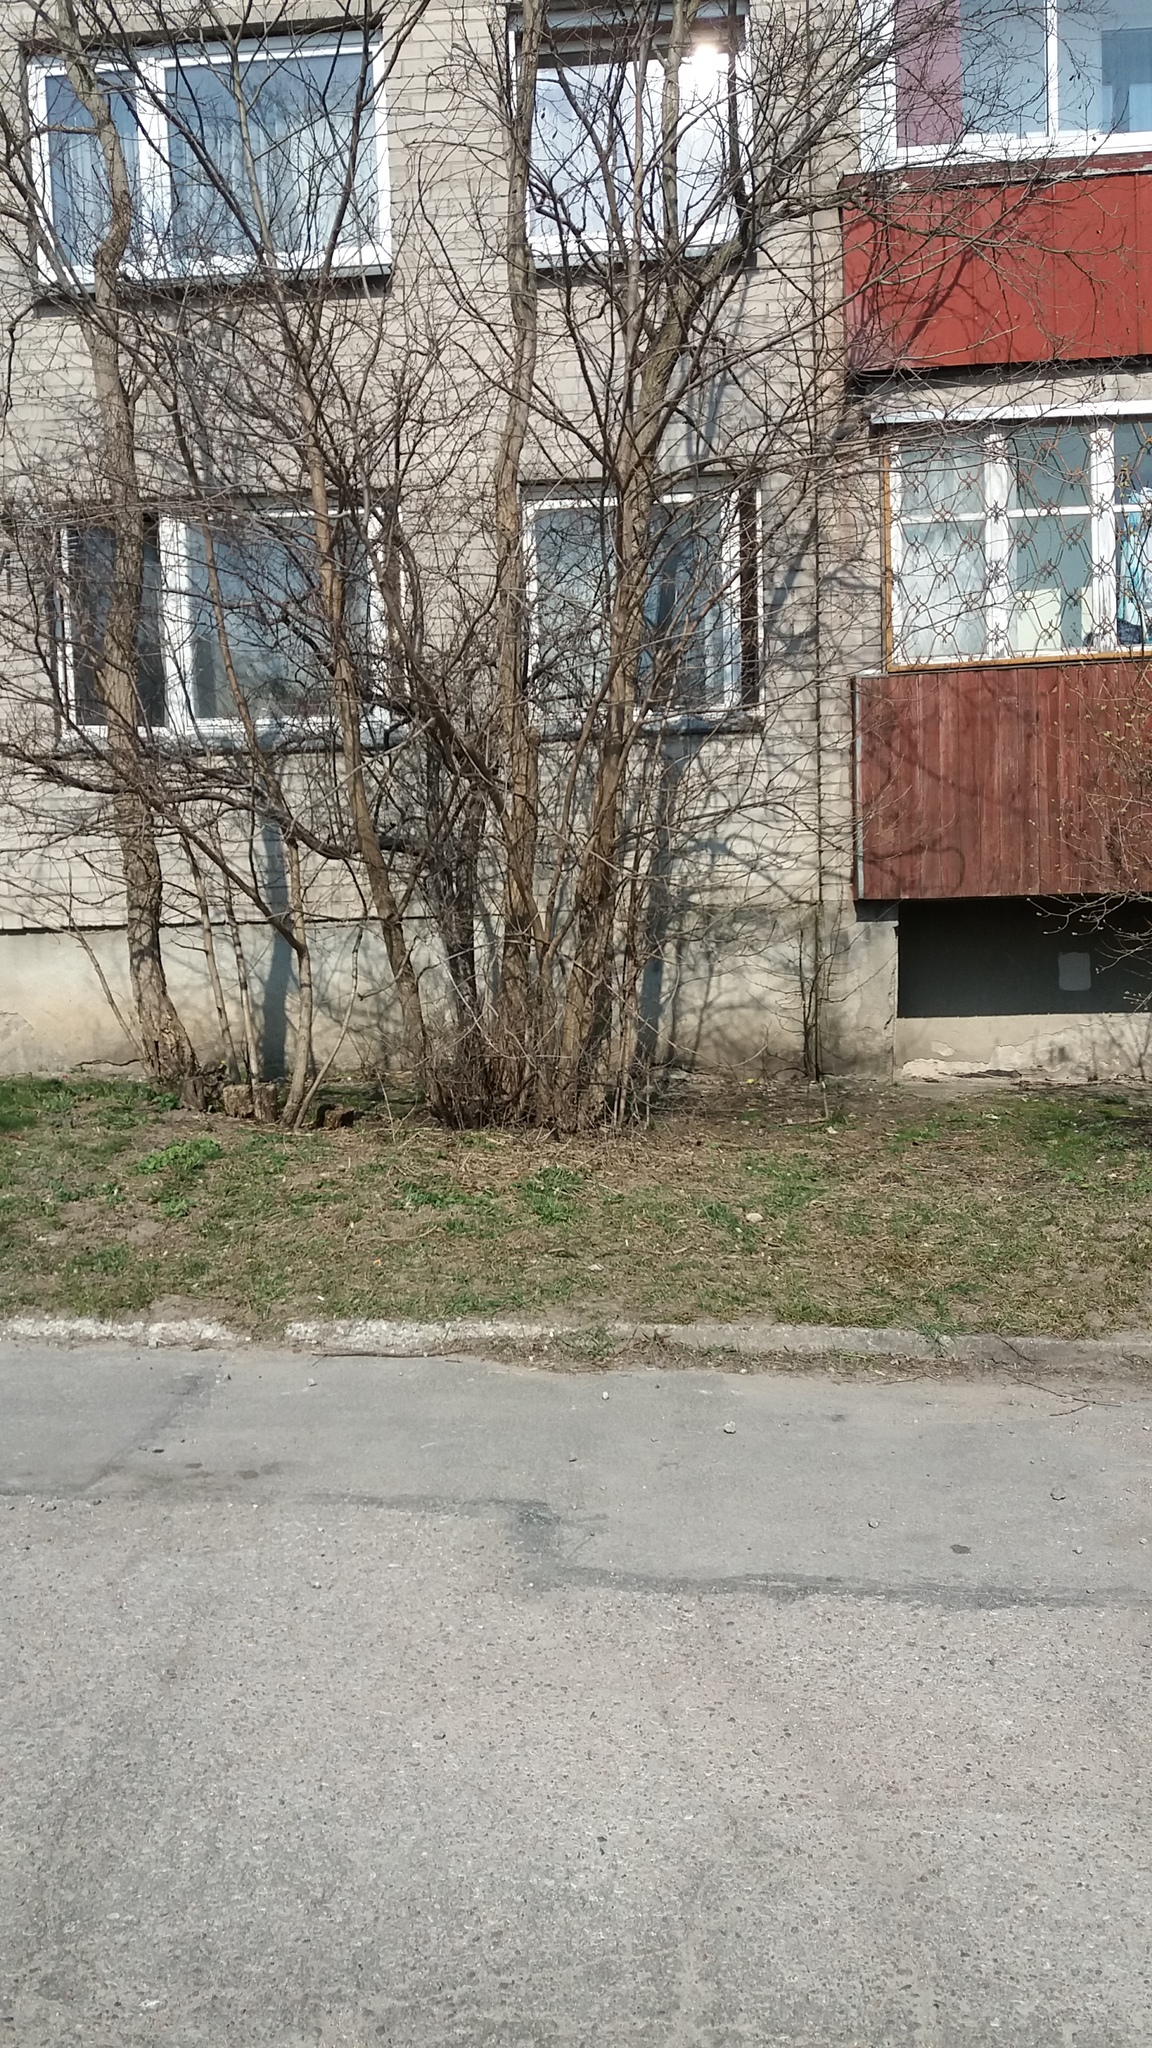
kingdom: Animalia
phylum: Chordata
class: Aves
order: Passeriformes
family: Passeridae
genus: Passer
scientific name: Passer domesticus
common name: House sparrow
